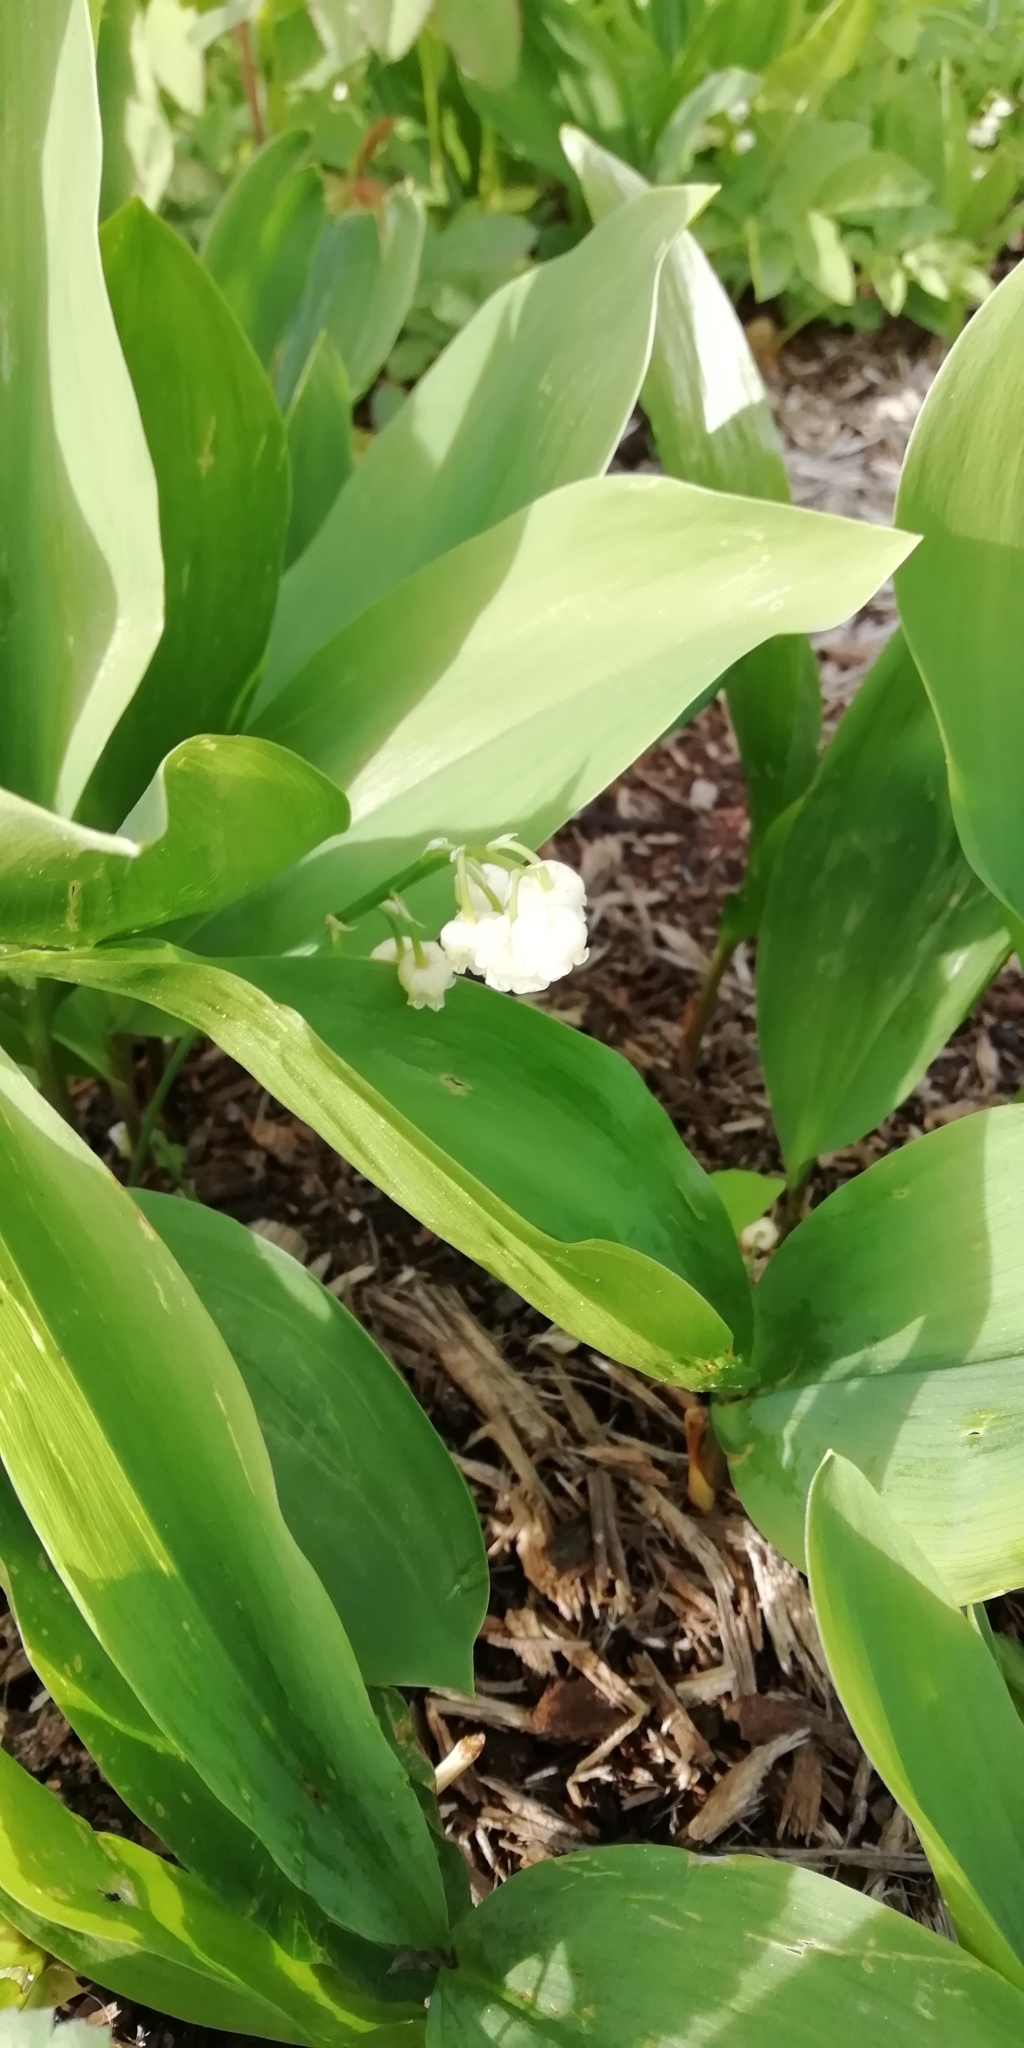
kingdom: Plantae
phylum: Tracheophyta
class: Liliopsida
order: Asparagales
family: Asparagaceae
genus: Convallaria
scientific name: Convallaria majalis
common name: Lily-of-the-valley
